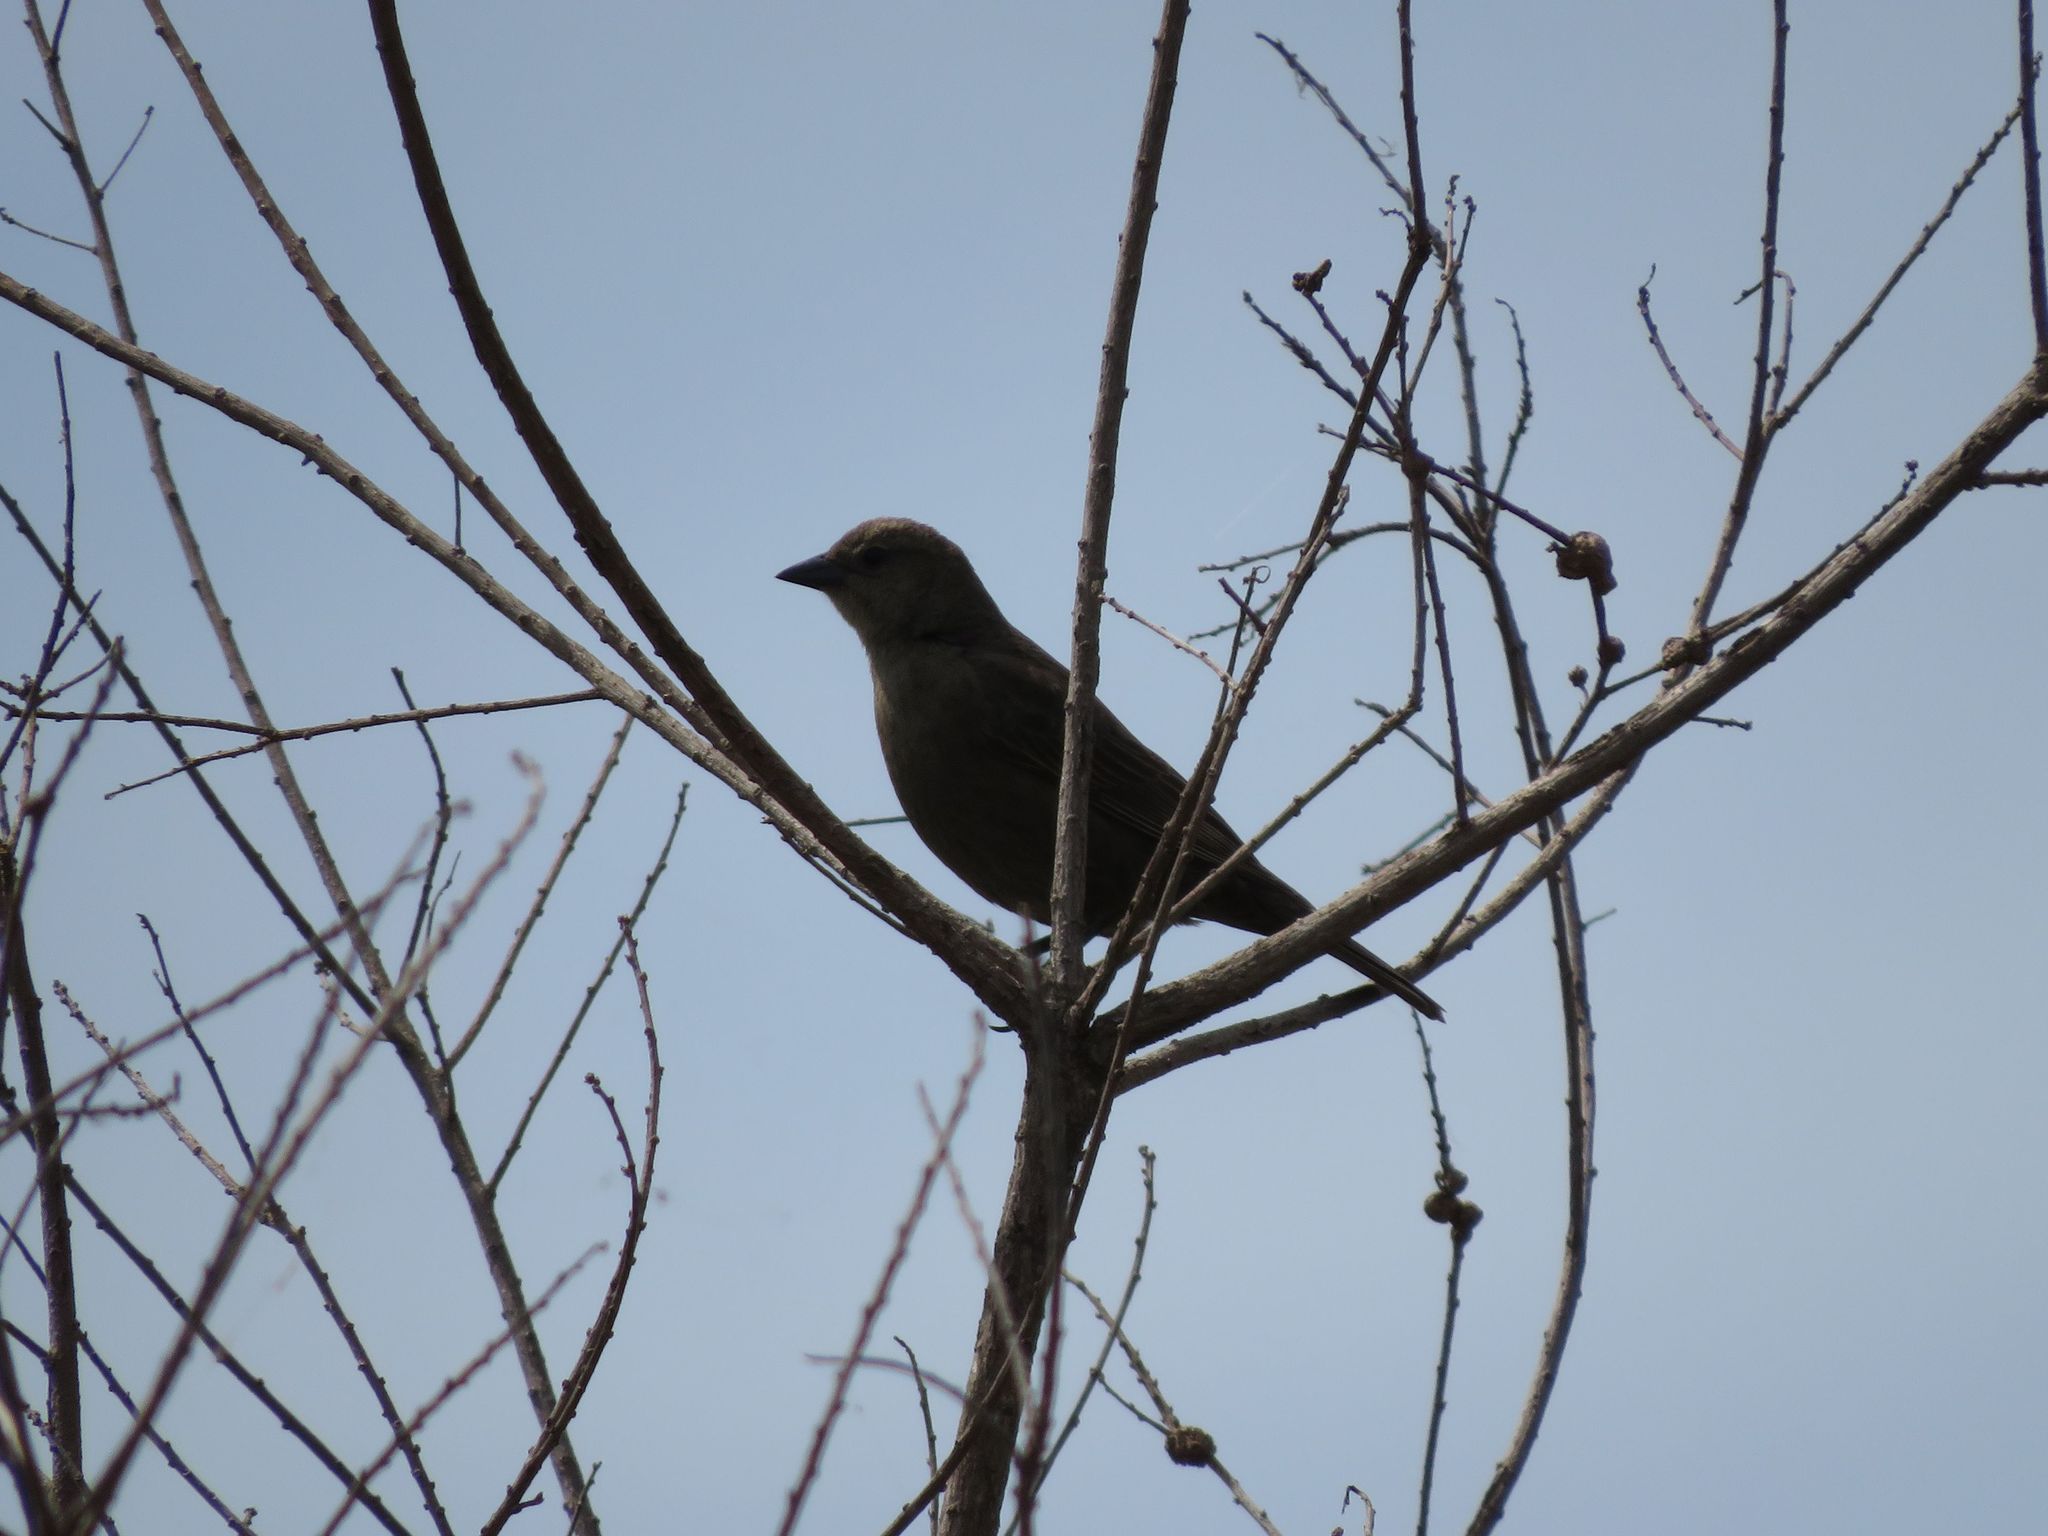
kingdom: Animalia
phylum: Chordata
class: Aves
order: Passeriformes
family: Icteridae
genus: Molothrus
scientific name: Molothrus bonariensis
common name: Shiny cowbird
